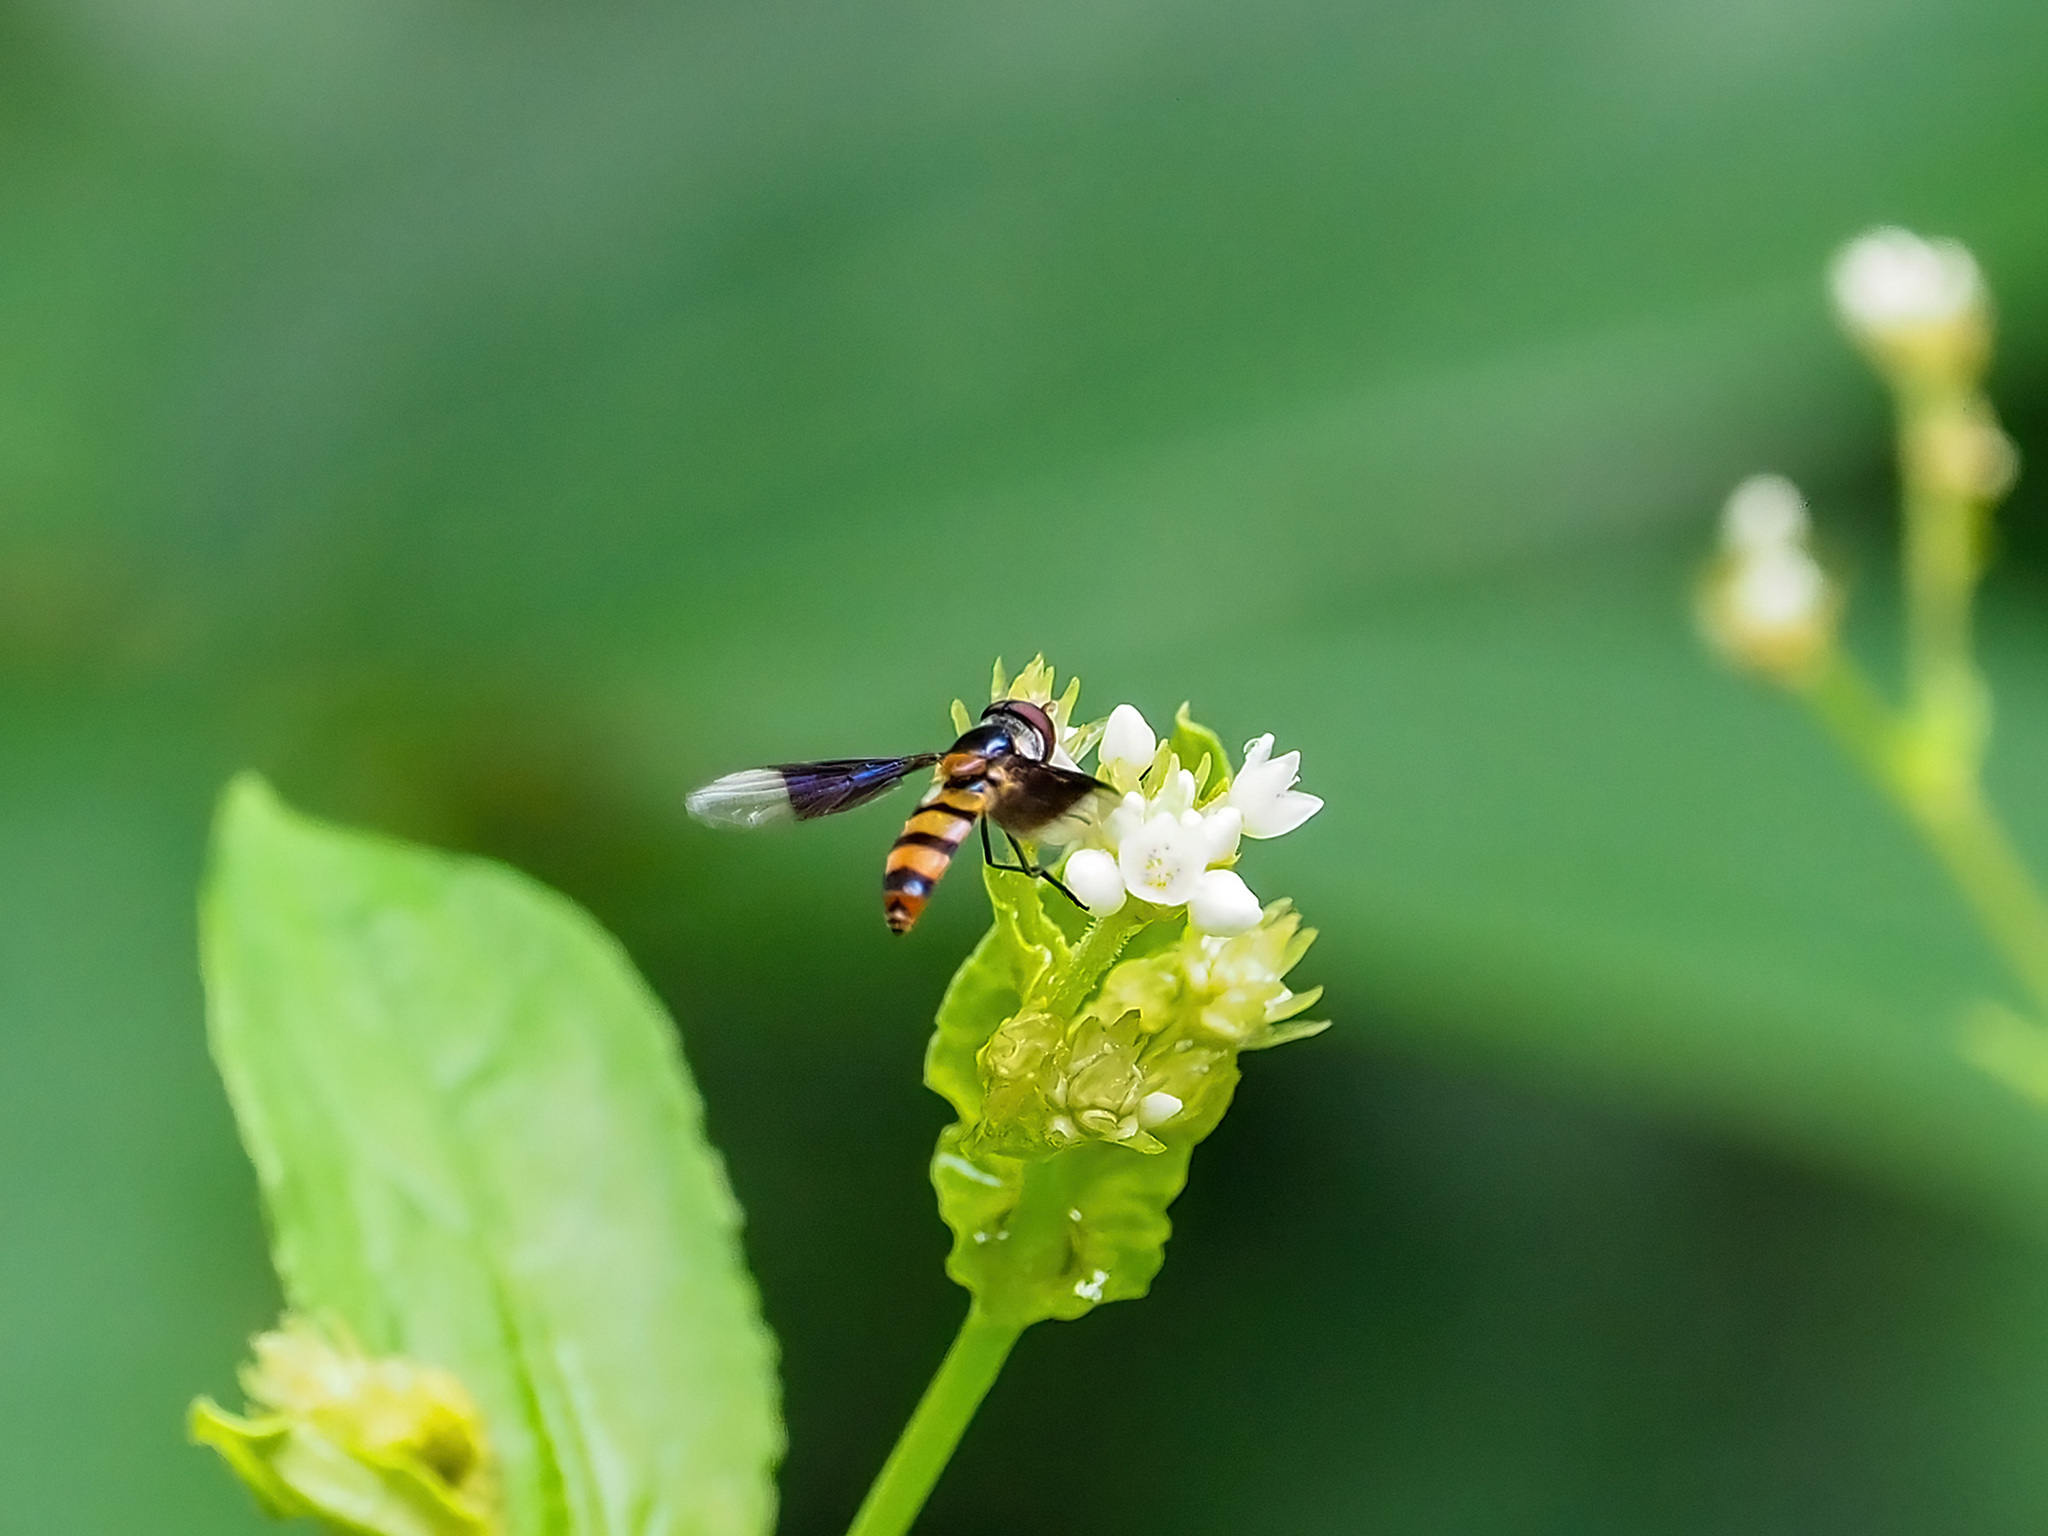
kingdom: Animalia
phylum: Arthropoda
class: Insecta
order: Diptera
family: Syrphidae
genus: Dideopsis
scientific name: Dideopsis aegrota
